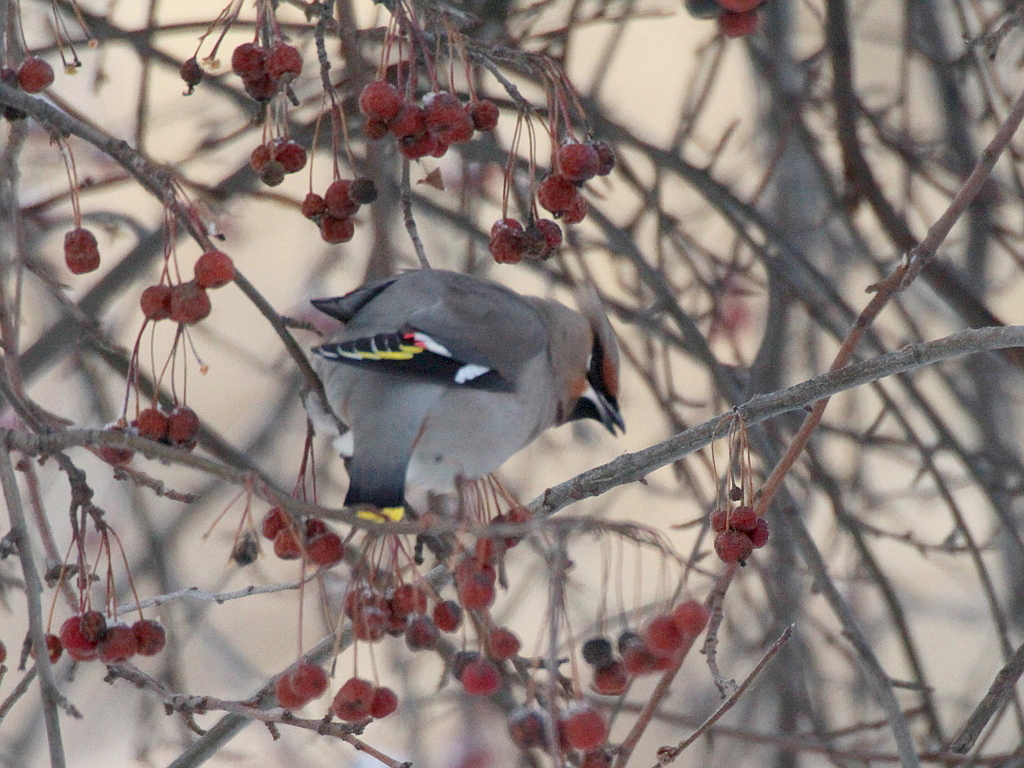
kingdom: Animalia
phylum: Chordata
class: Aves
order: Passeriformes
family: Bombycillidae
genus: Bombycilla
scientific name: Bombycilla garrulus
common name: Bohemian waxwing
